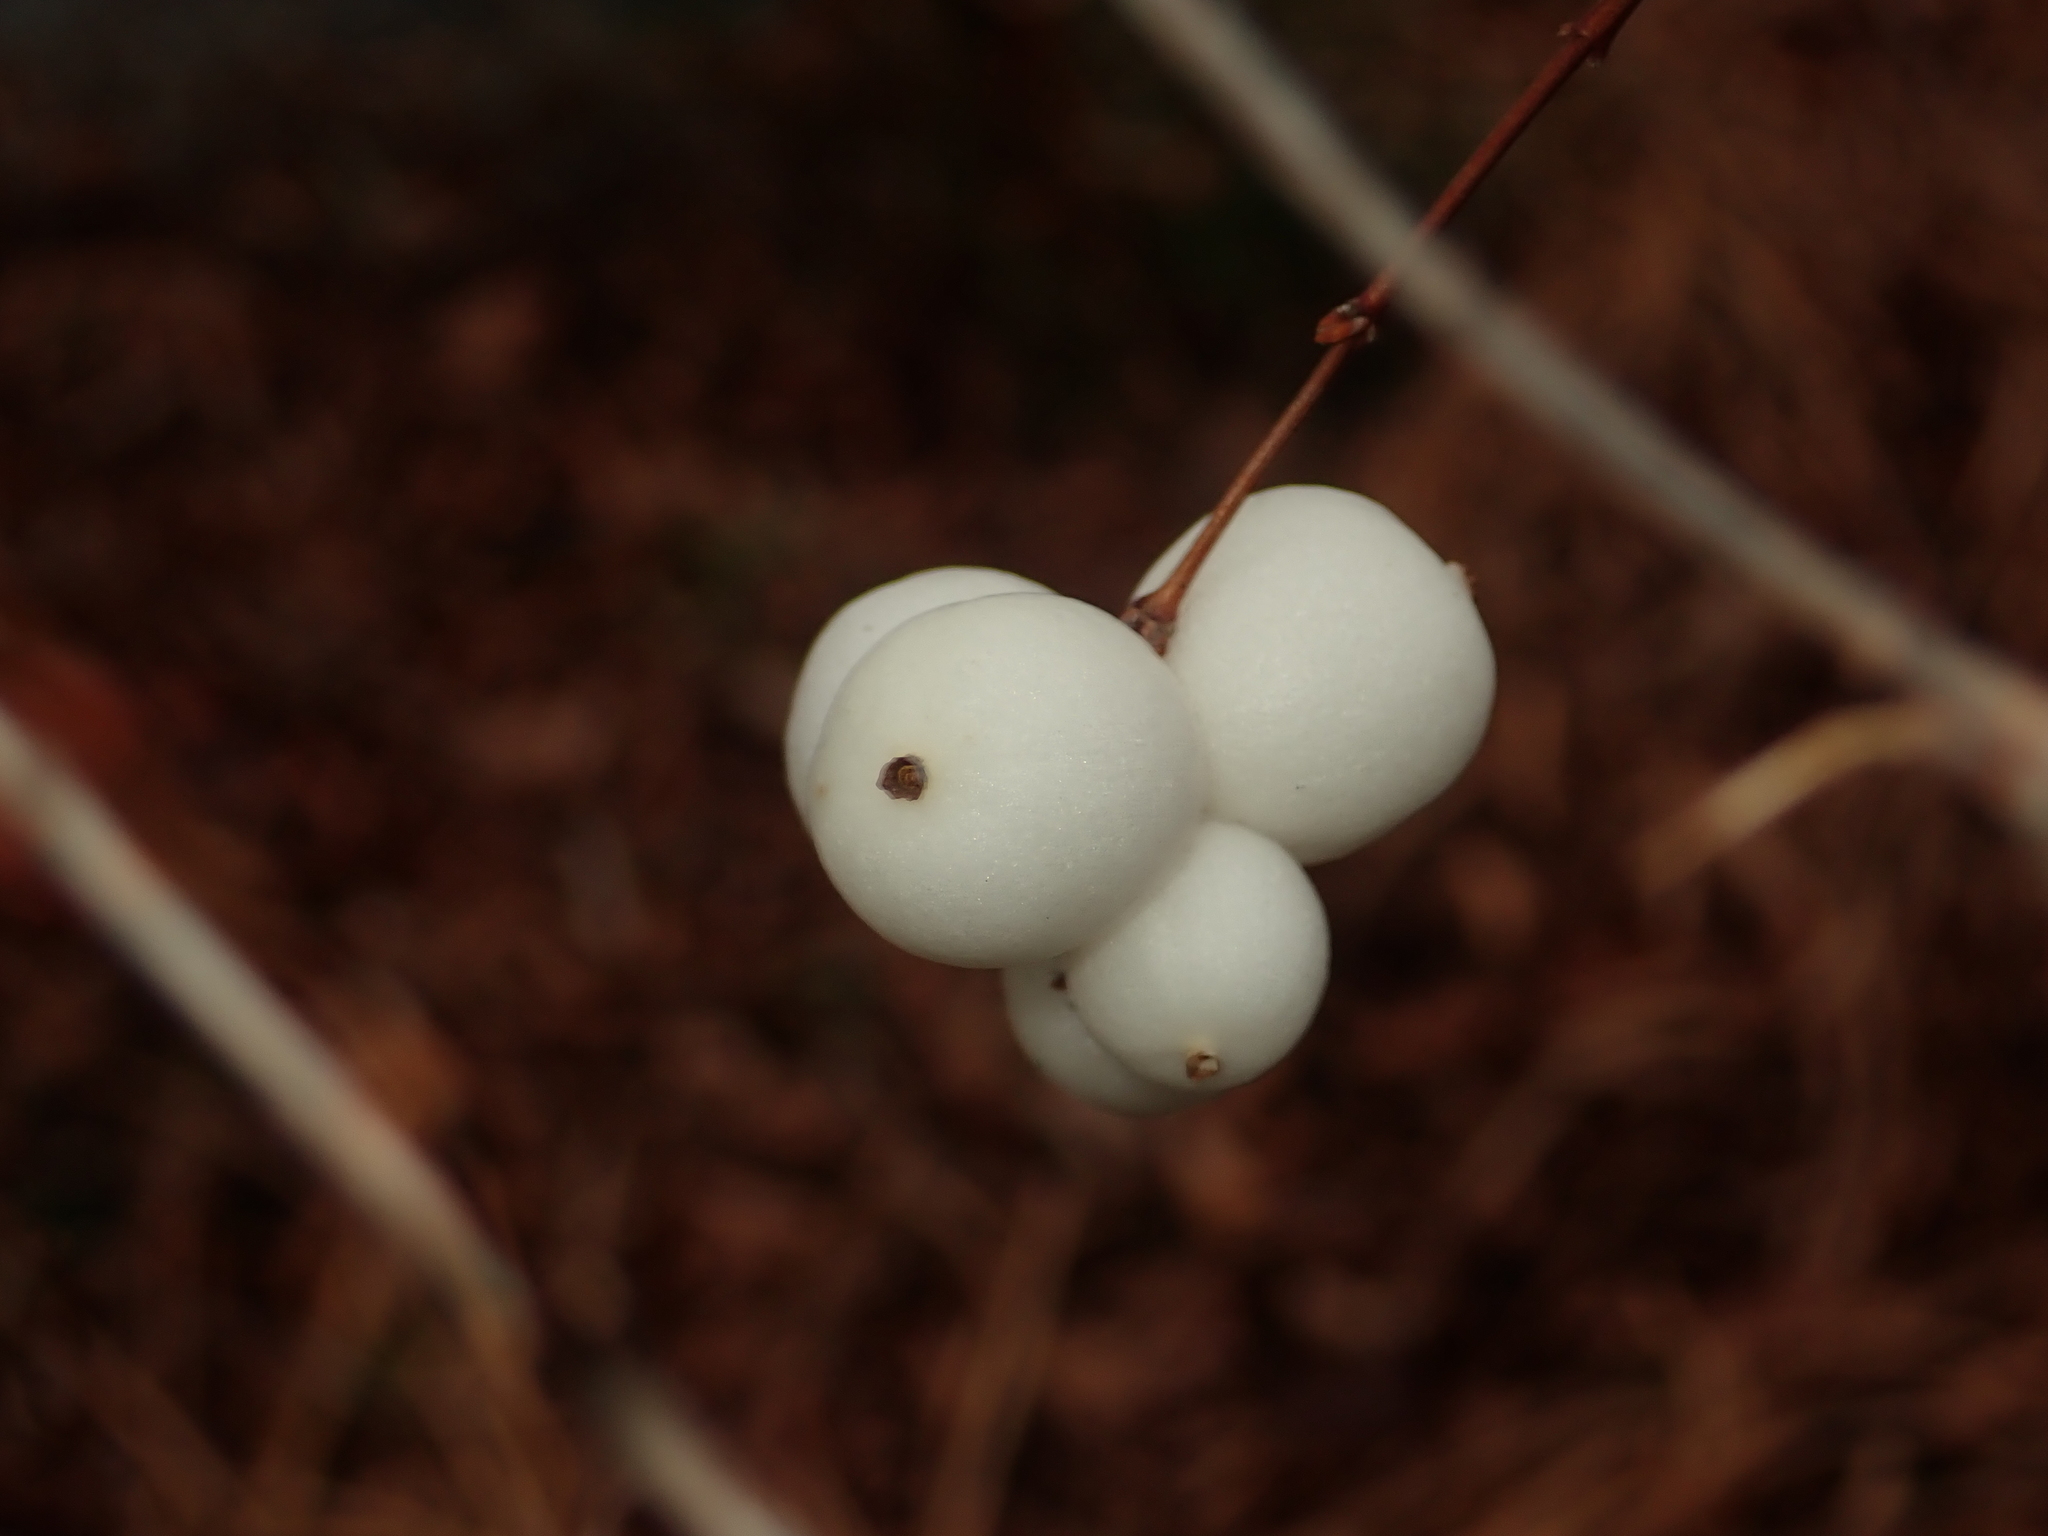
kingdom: Plantae
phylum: Tracheophyta
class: Magnoliopsida
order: Dipsacales
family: Caprifoliaceae
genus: Symphoricarpos
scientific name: Symphoricarpos albus
